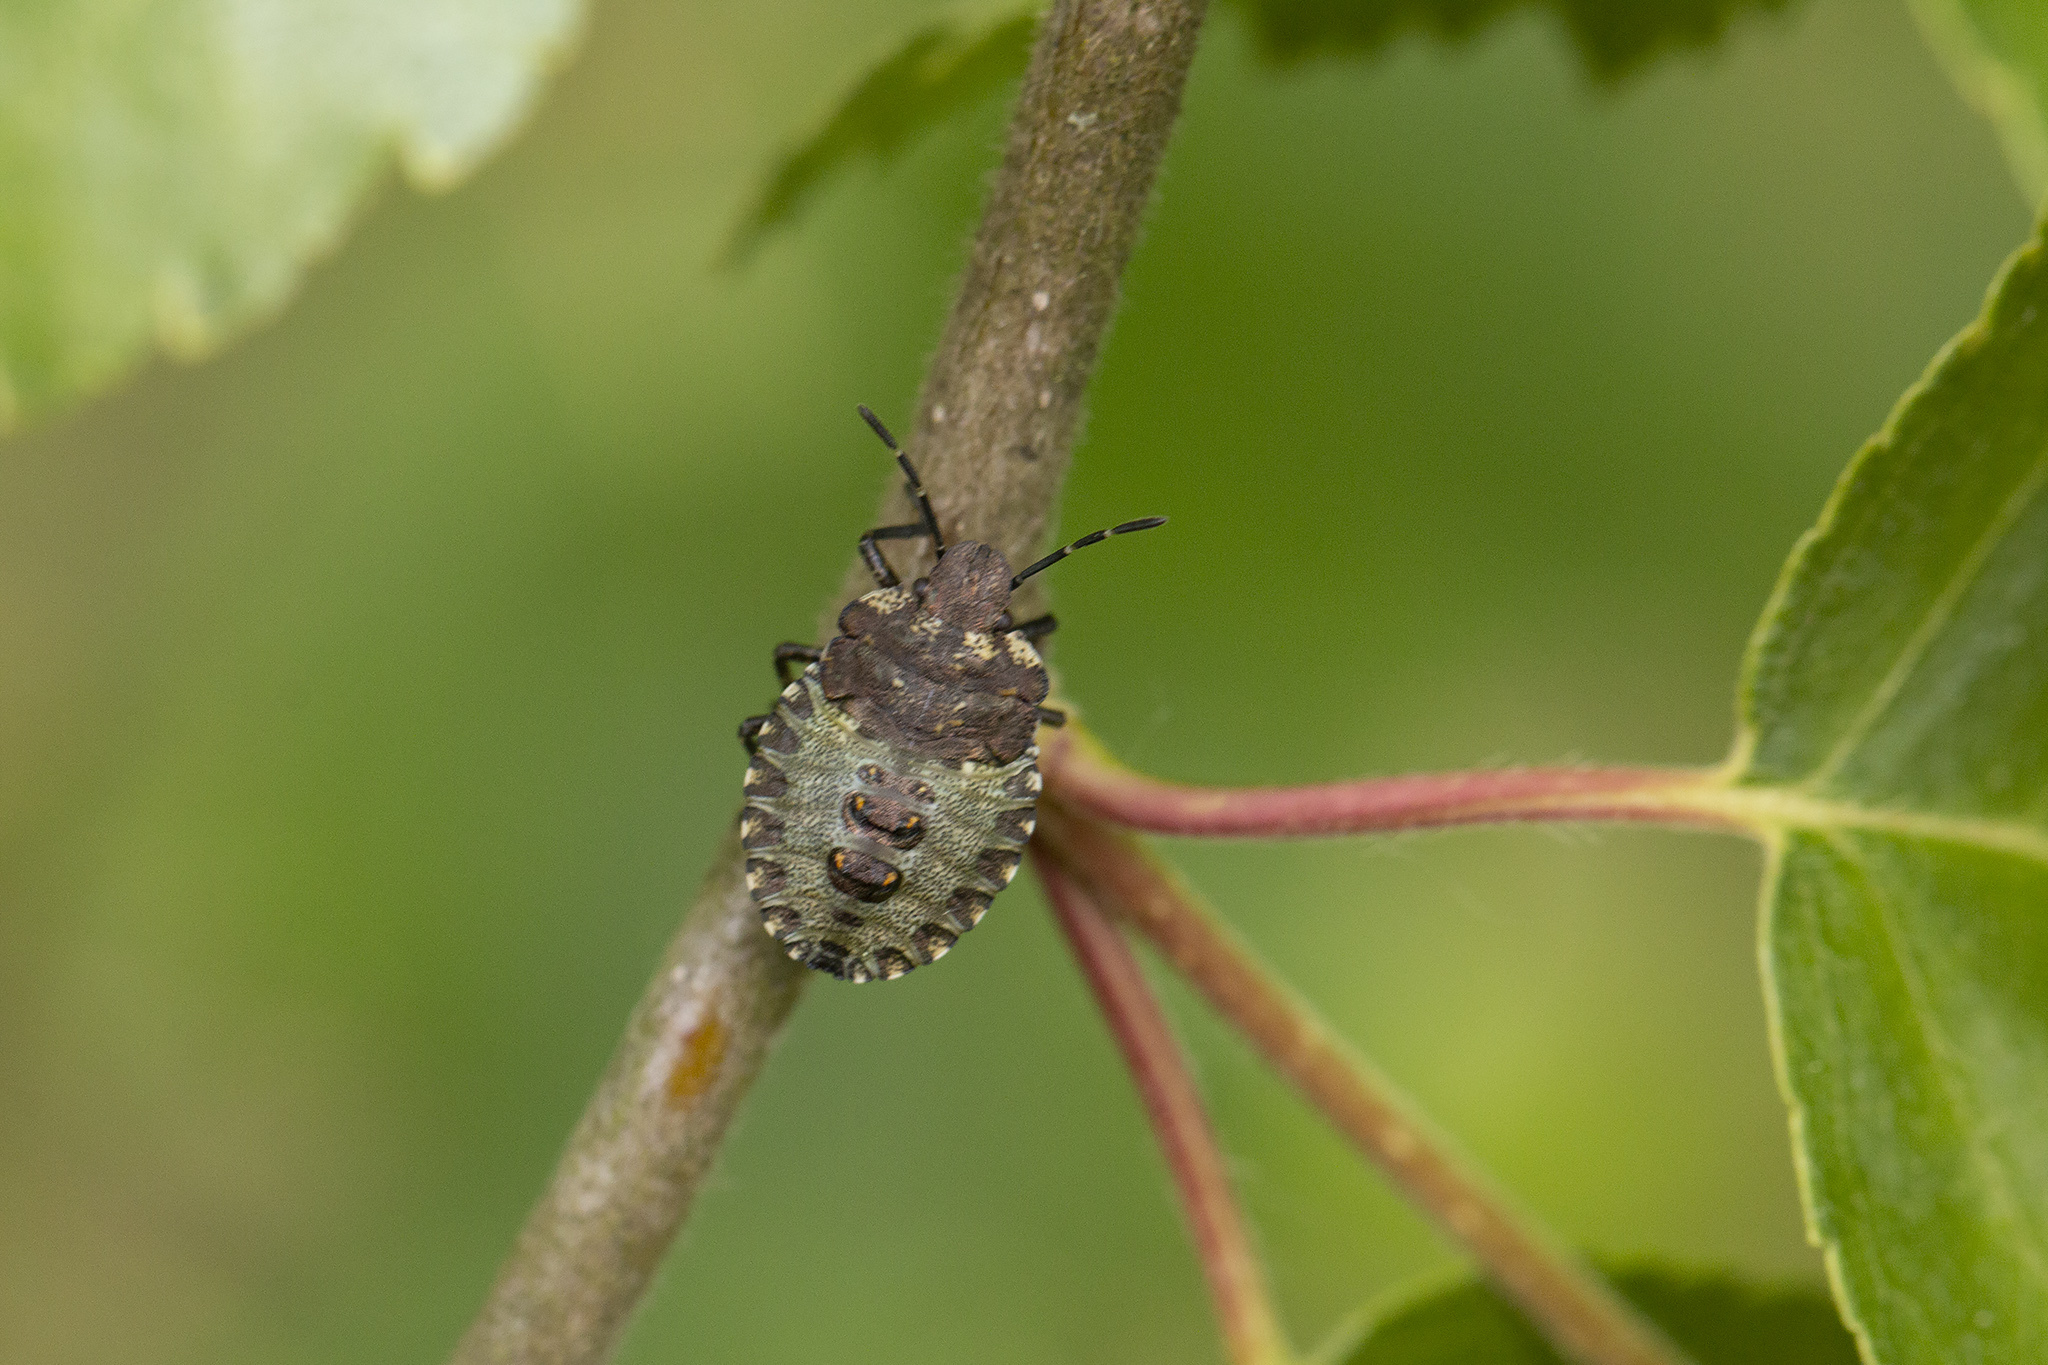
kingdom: Animalia
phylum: Arthropoda
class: Insecta
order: Hemiptera
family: Pentatomidae
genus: Pentatoma
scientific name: Pentatoma rufipes
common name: Forest bug
